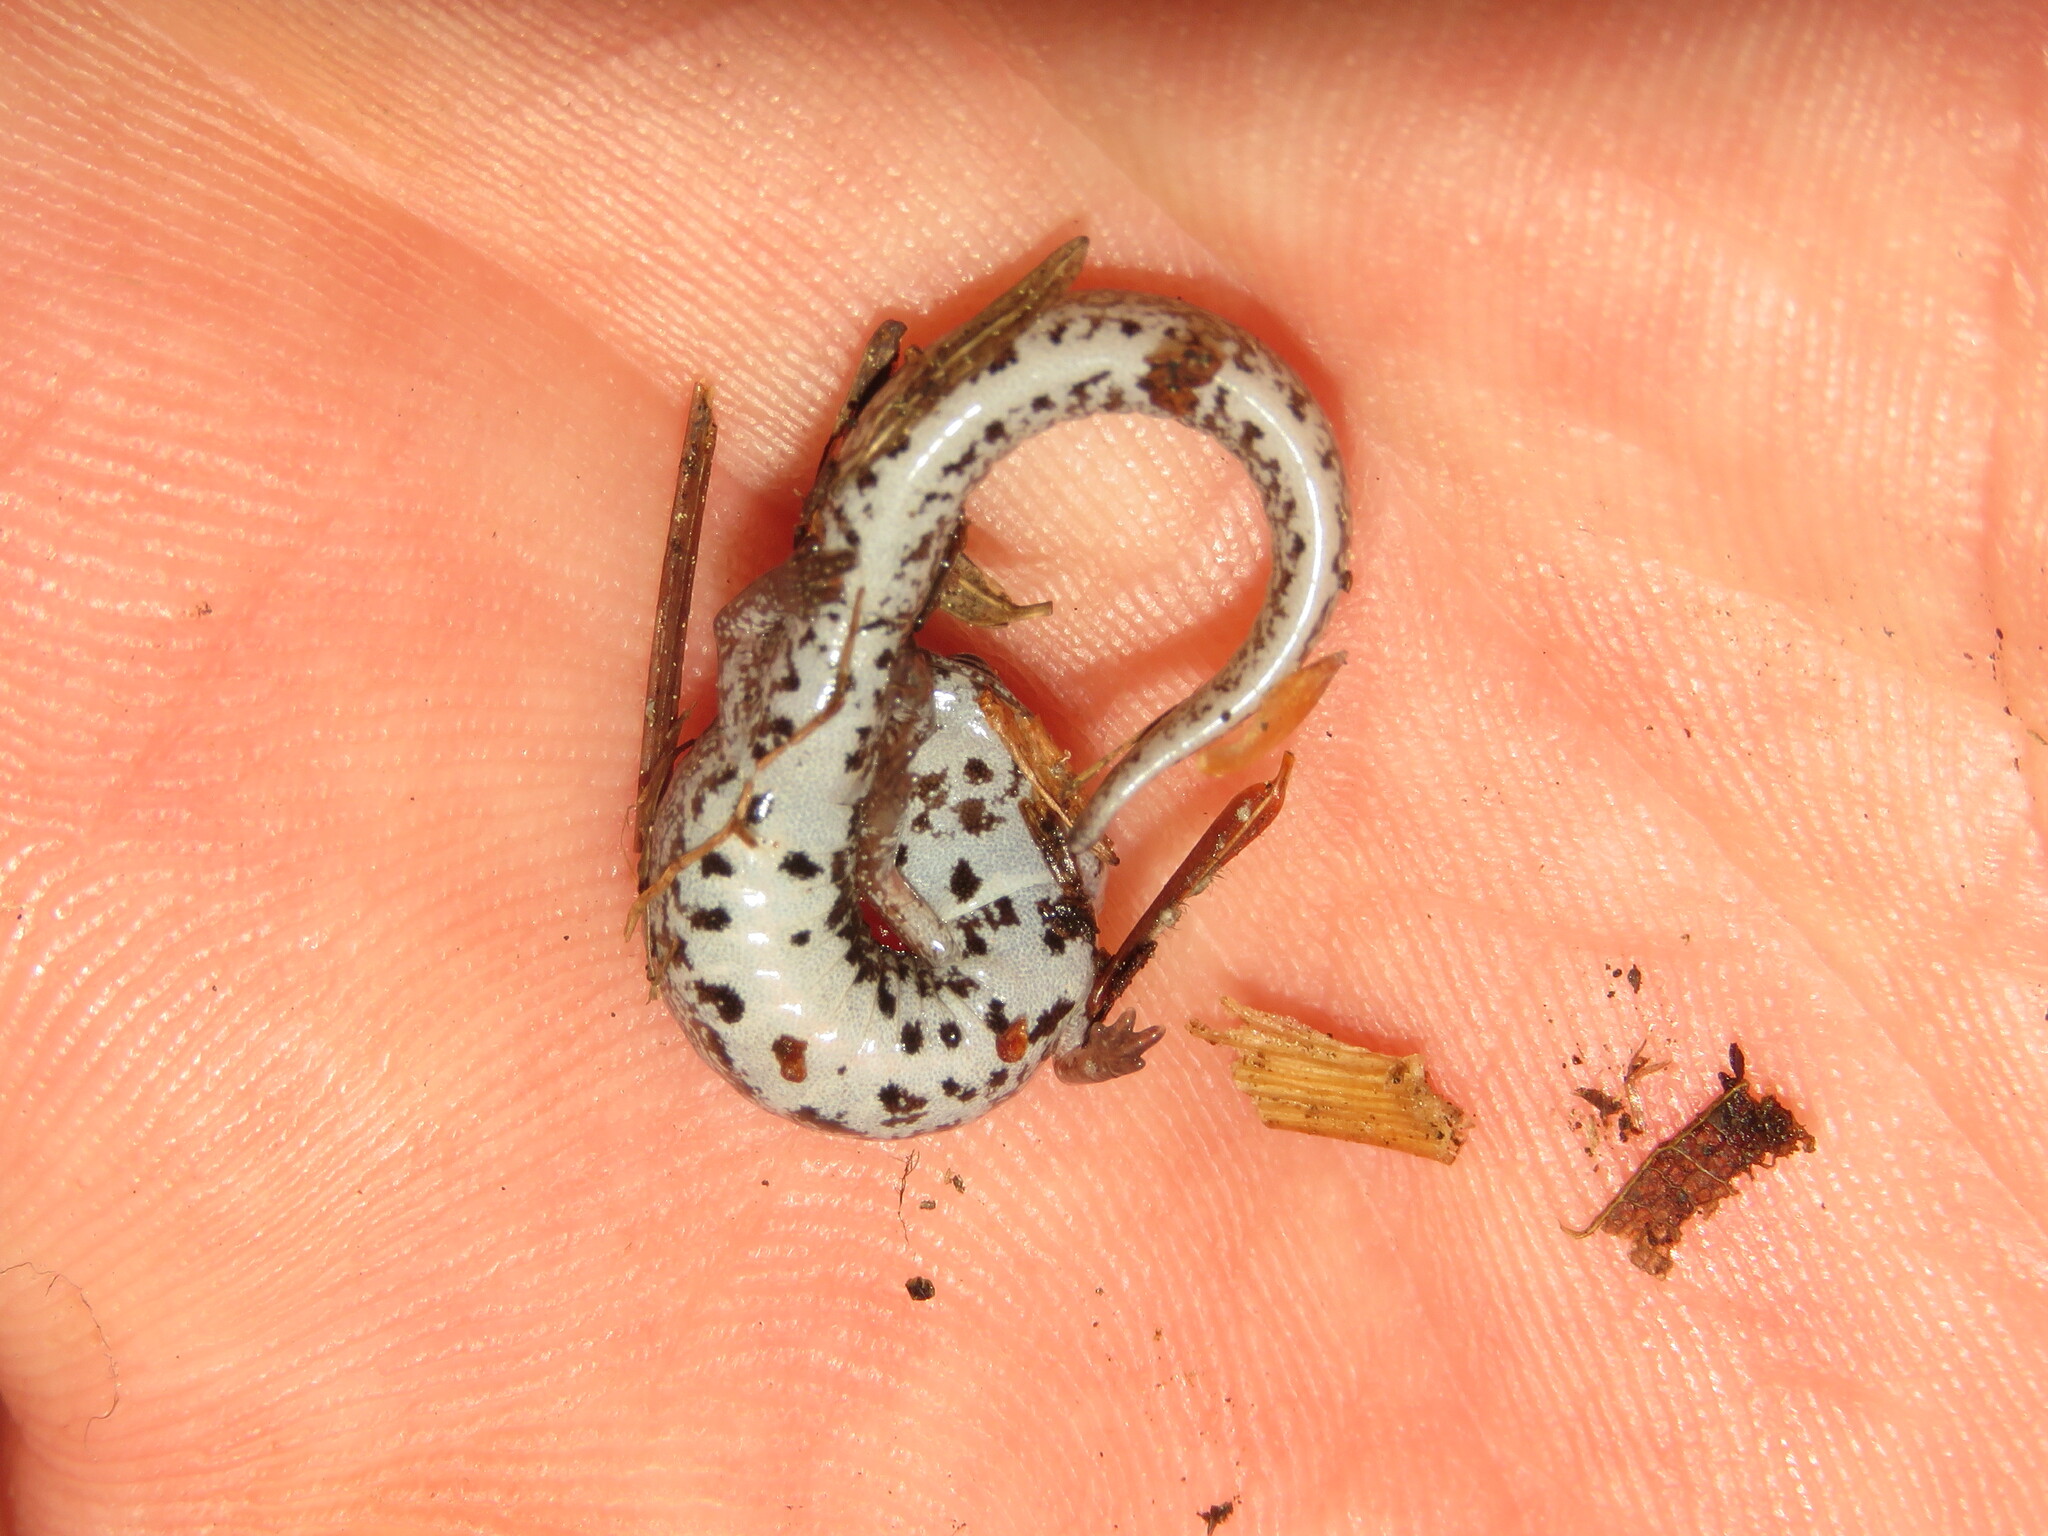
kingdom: Animalia
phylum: Chordata
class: Amphibia
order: Caudata
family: Plethodontidae
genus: Hemidactylium
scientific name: Hemidactylium scutatum
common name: Four-toed salamander
